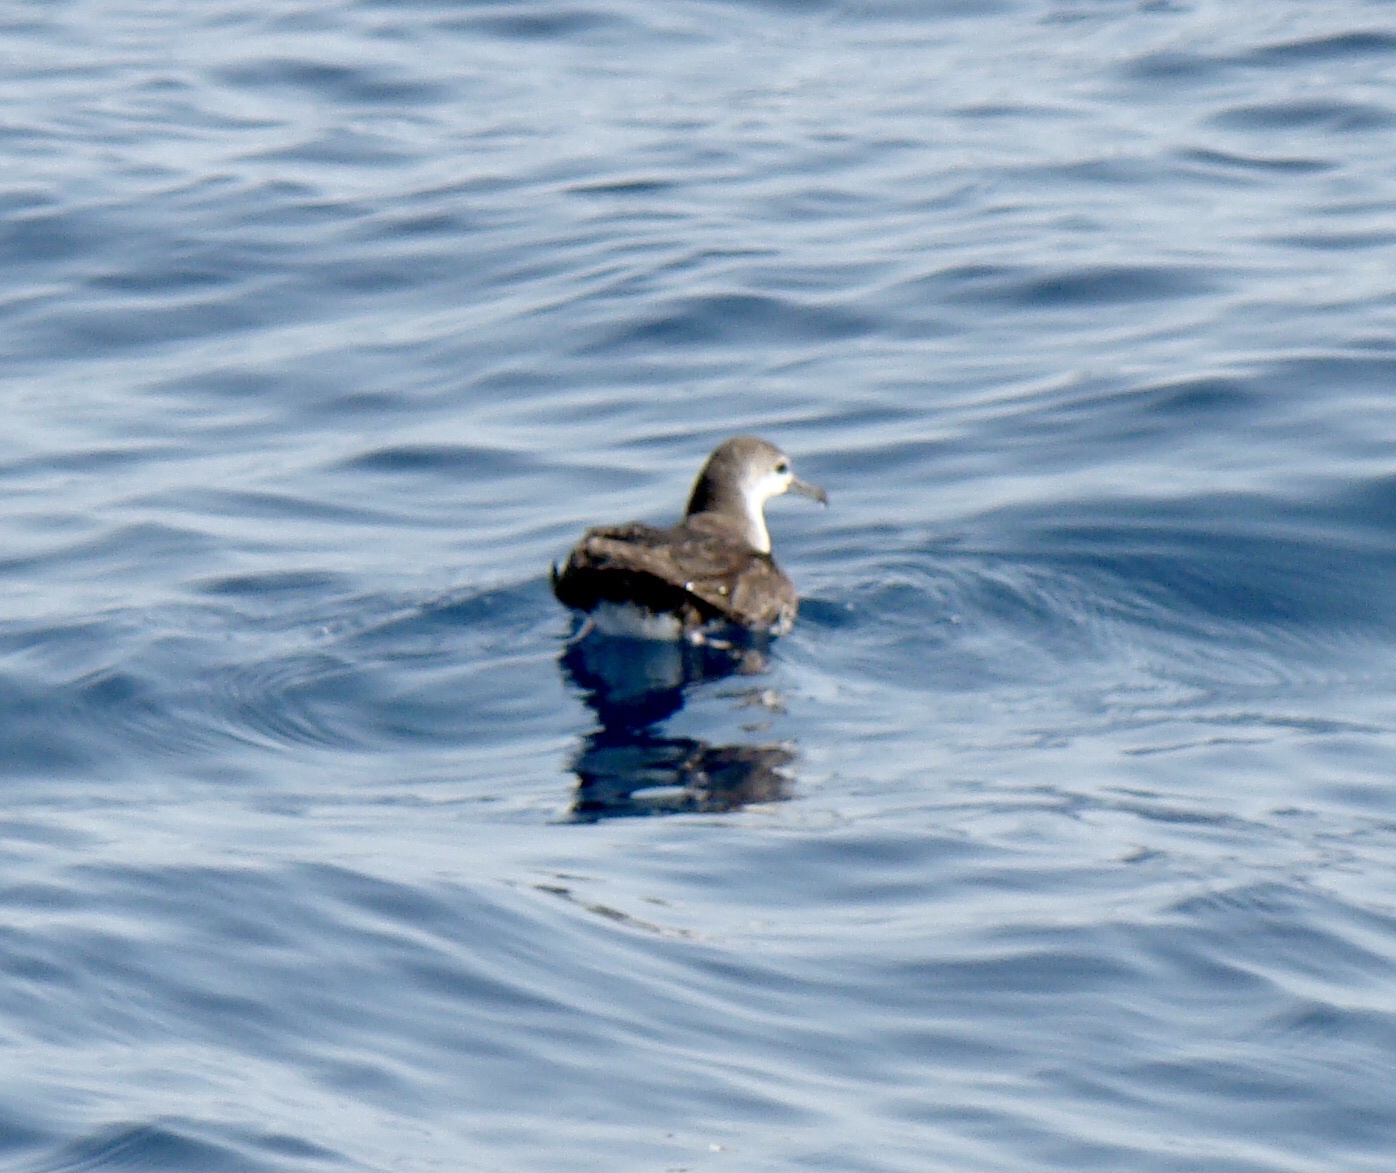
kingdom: Animalia
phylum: Chordata
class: Aves
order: Procellariiformes
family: Procellariidae
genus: Puffinus
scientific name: Puffinus persicus
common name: Persian shearwater
